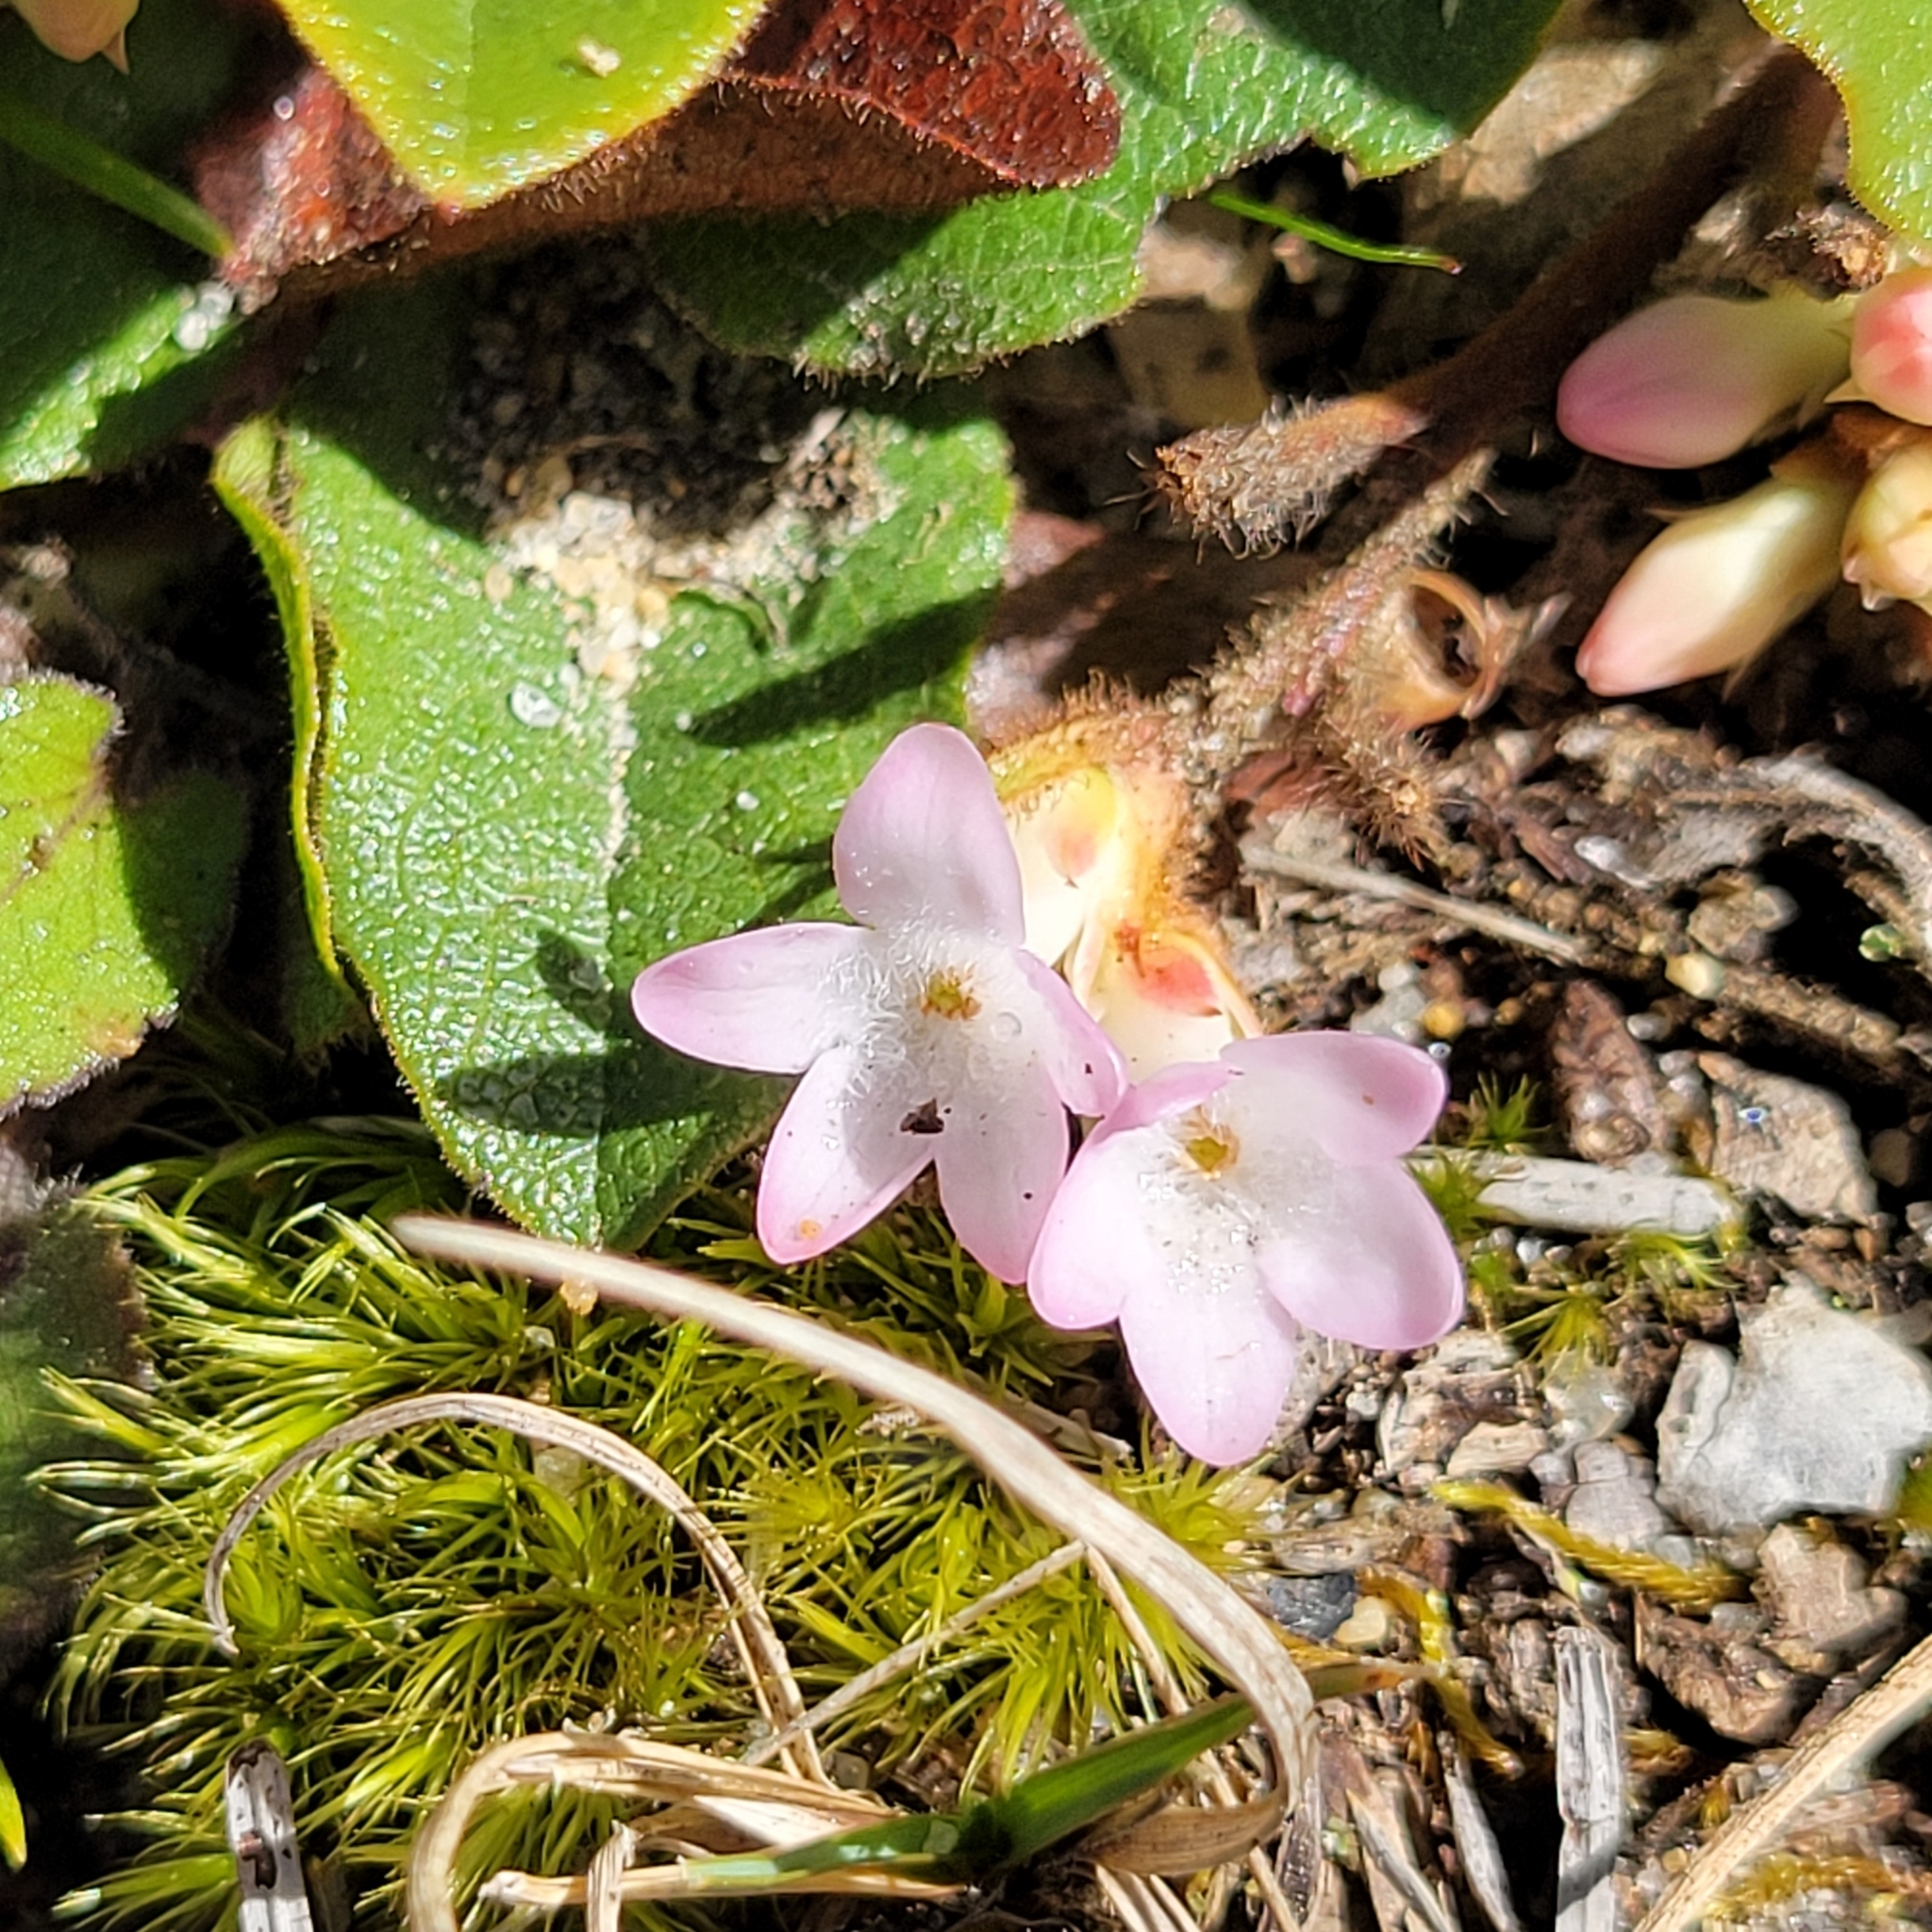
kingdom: Plantae
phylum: Tracheophyta
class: Magnoliopsida
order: Ericales
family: Ericaceae
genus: Epigaea
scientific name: Epigaea repens
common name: Gravelroot
